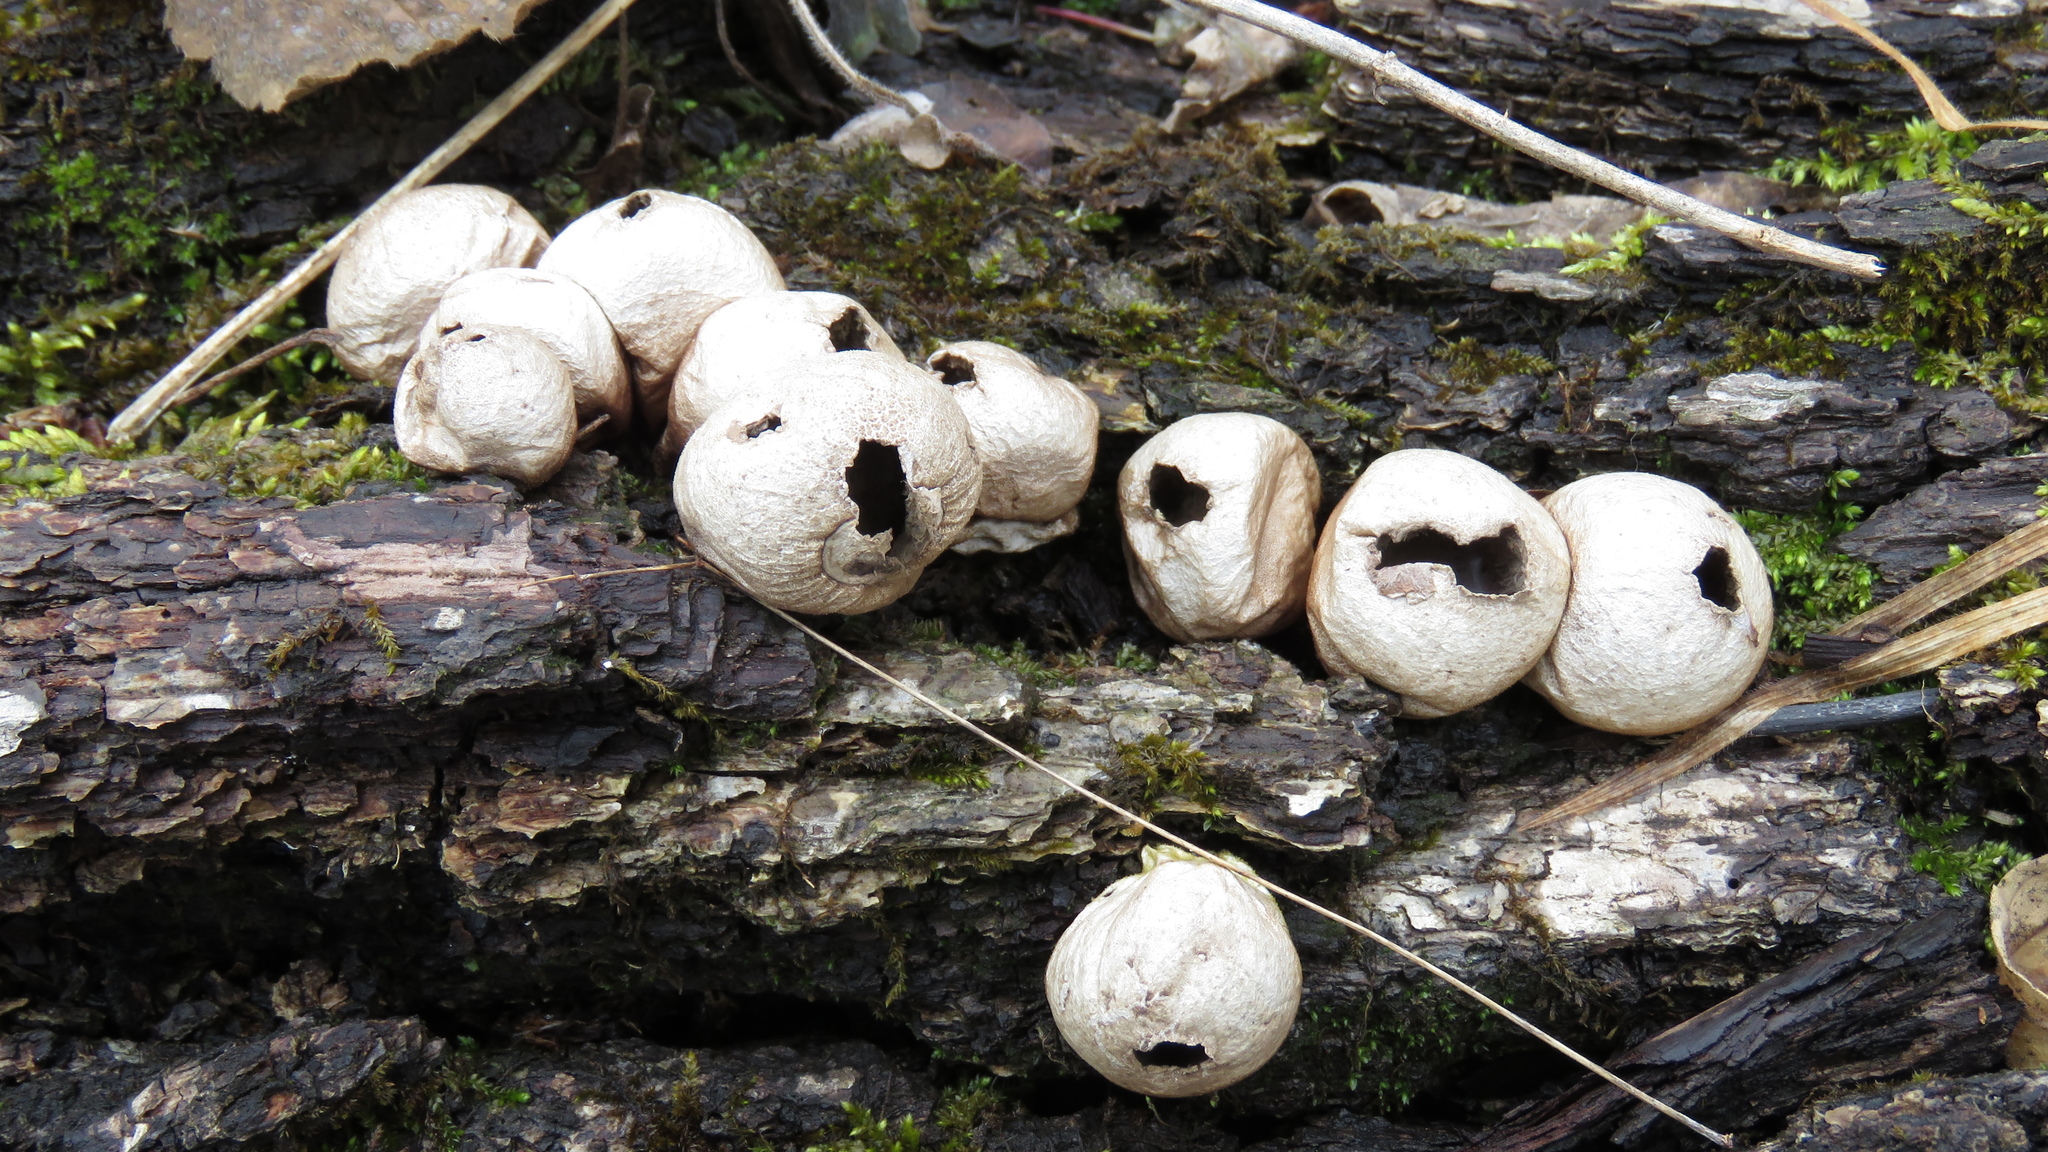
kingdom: Fungi
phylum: Basidiomycota
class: Agaricomycetes
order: Agaricales
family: Lycoperdaceae
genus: Apioperdon
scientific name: Apioperdon pyriforme
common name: Pear-shaped puffball
